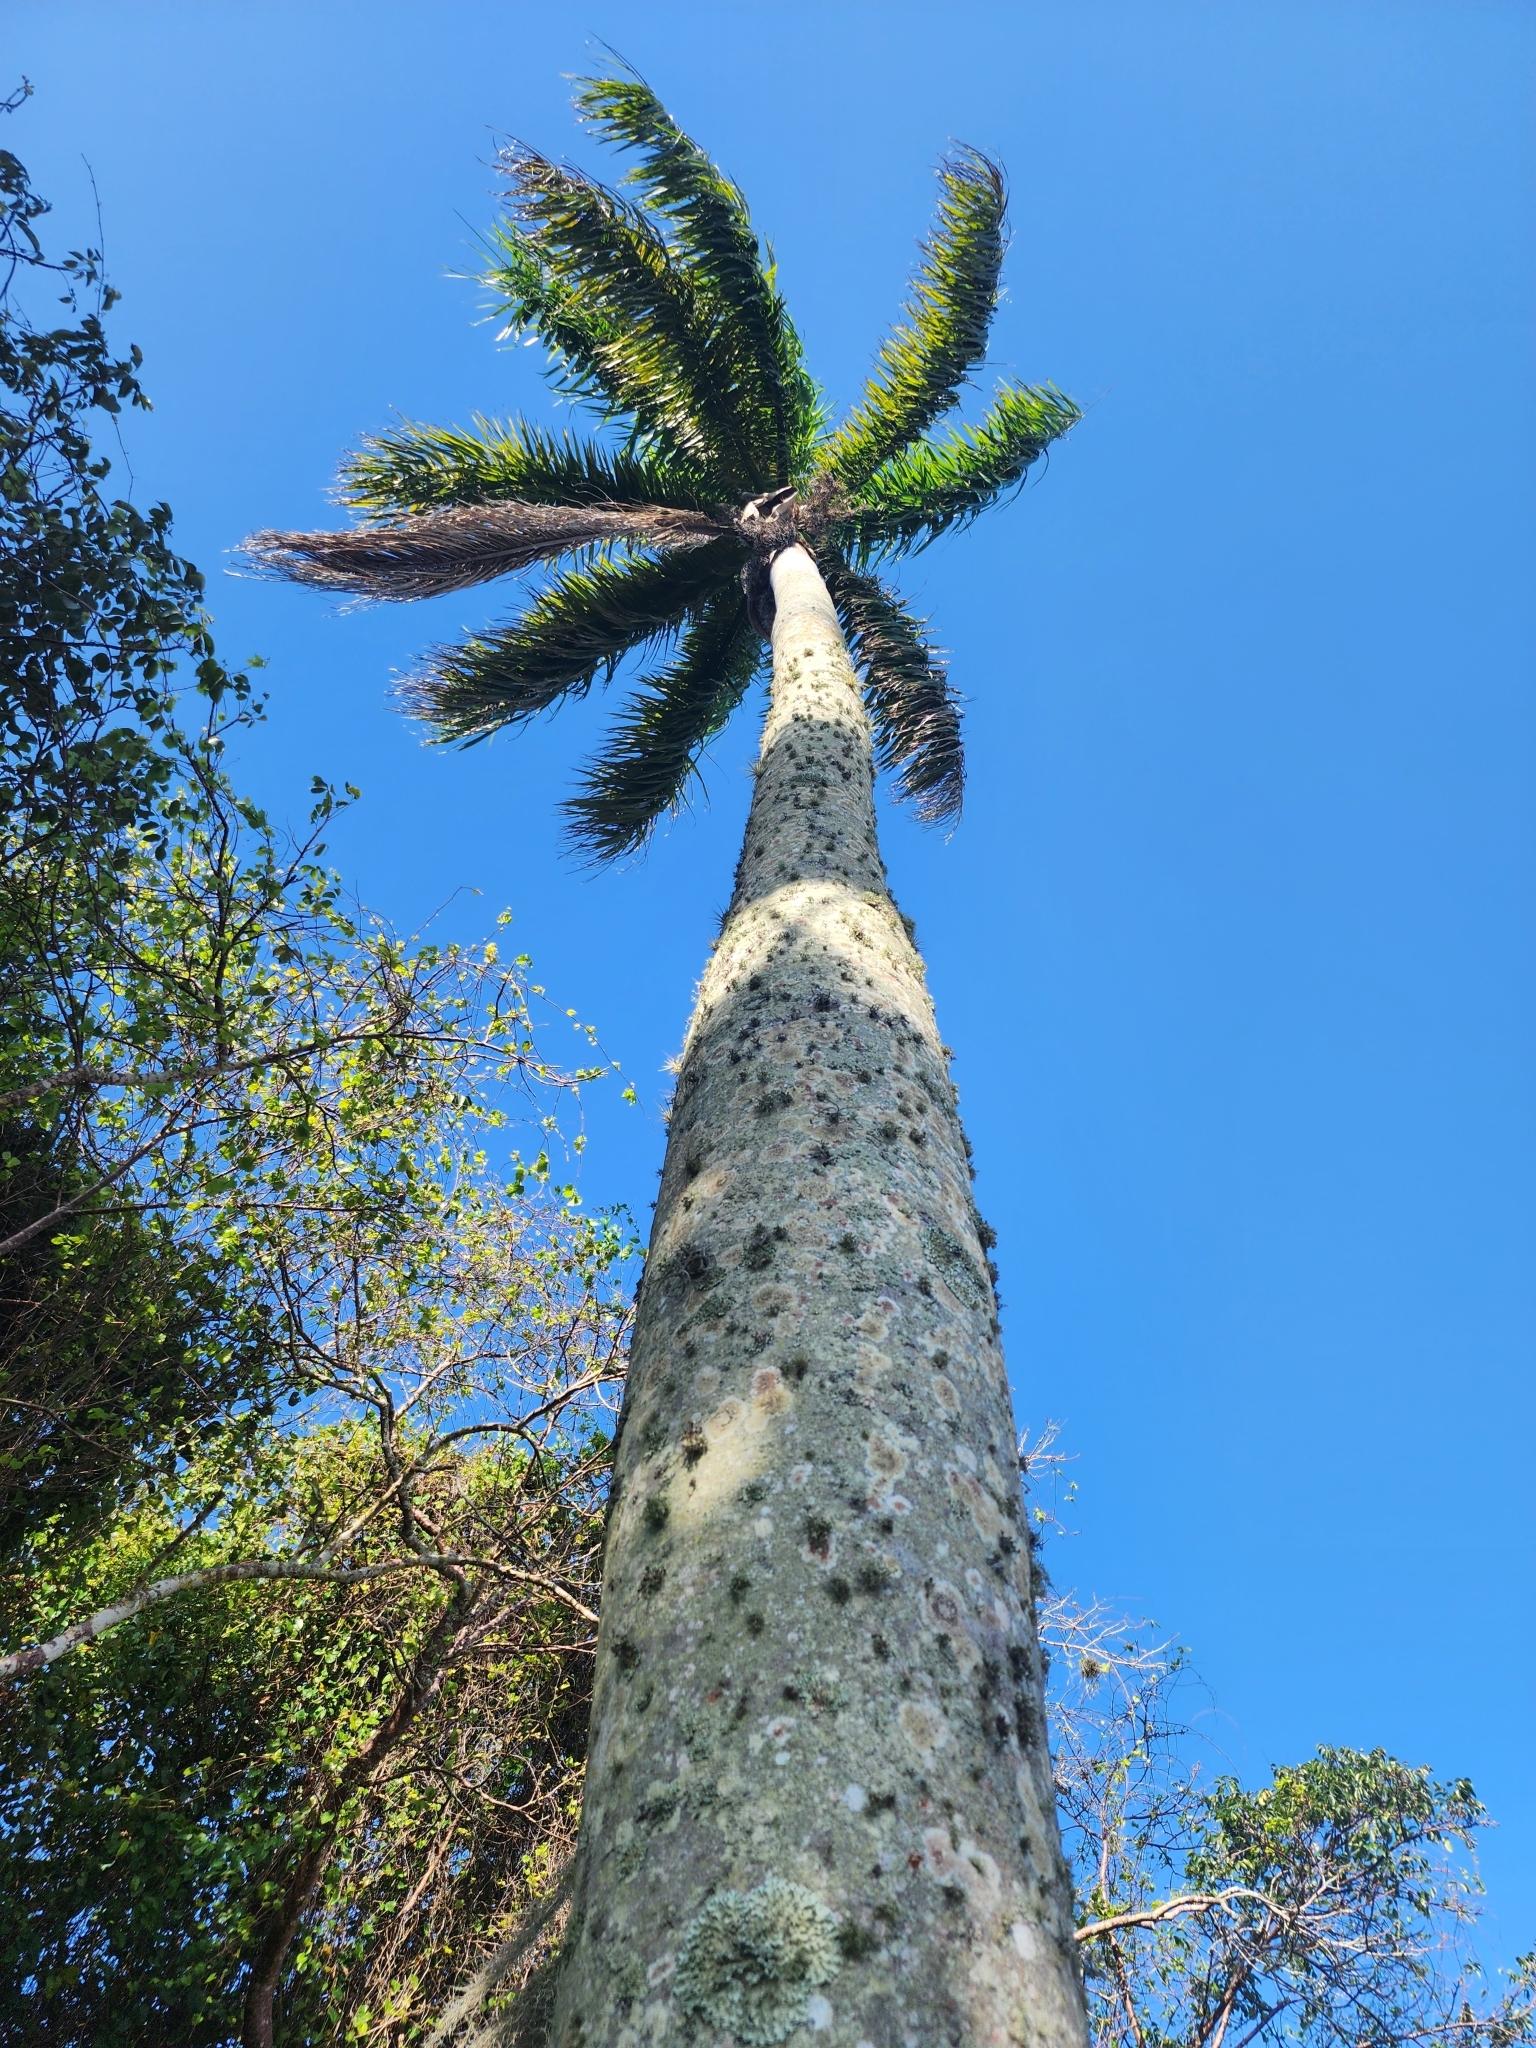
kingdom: Plantae
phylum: Tracheophyta
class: Liliopsida
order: Arecales
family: Arecaceae
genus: Roystonea
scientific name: Roystonea regia
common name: Florida royal palm
